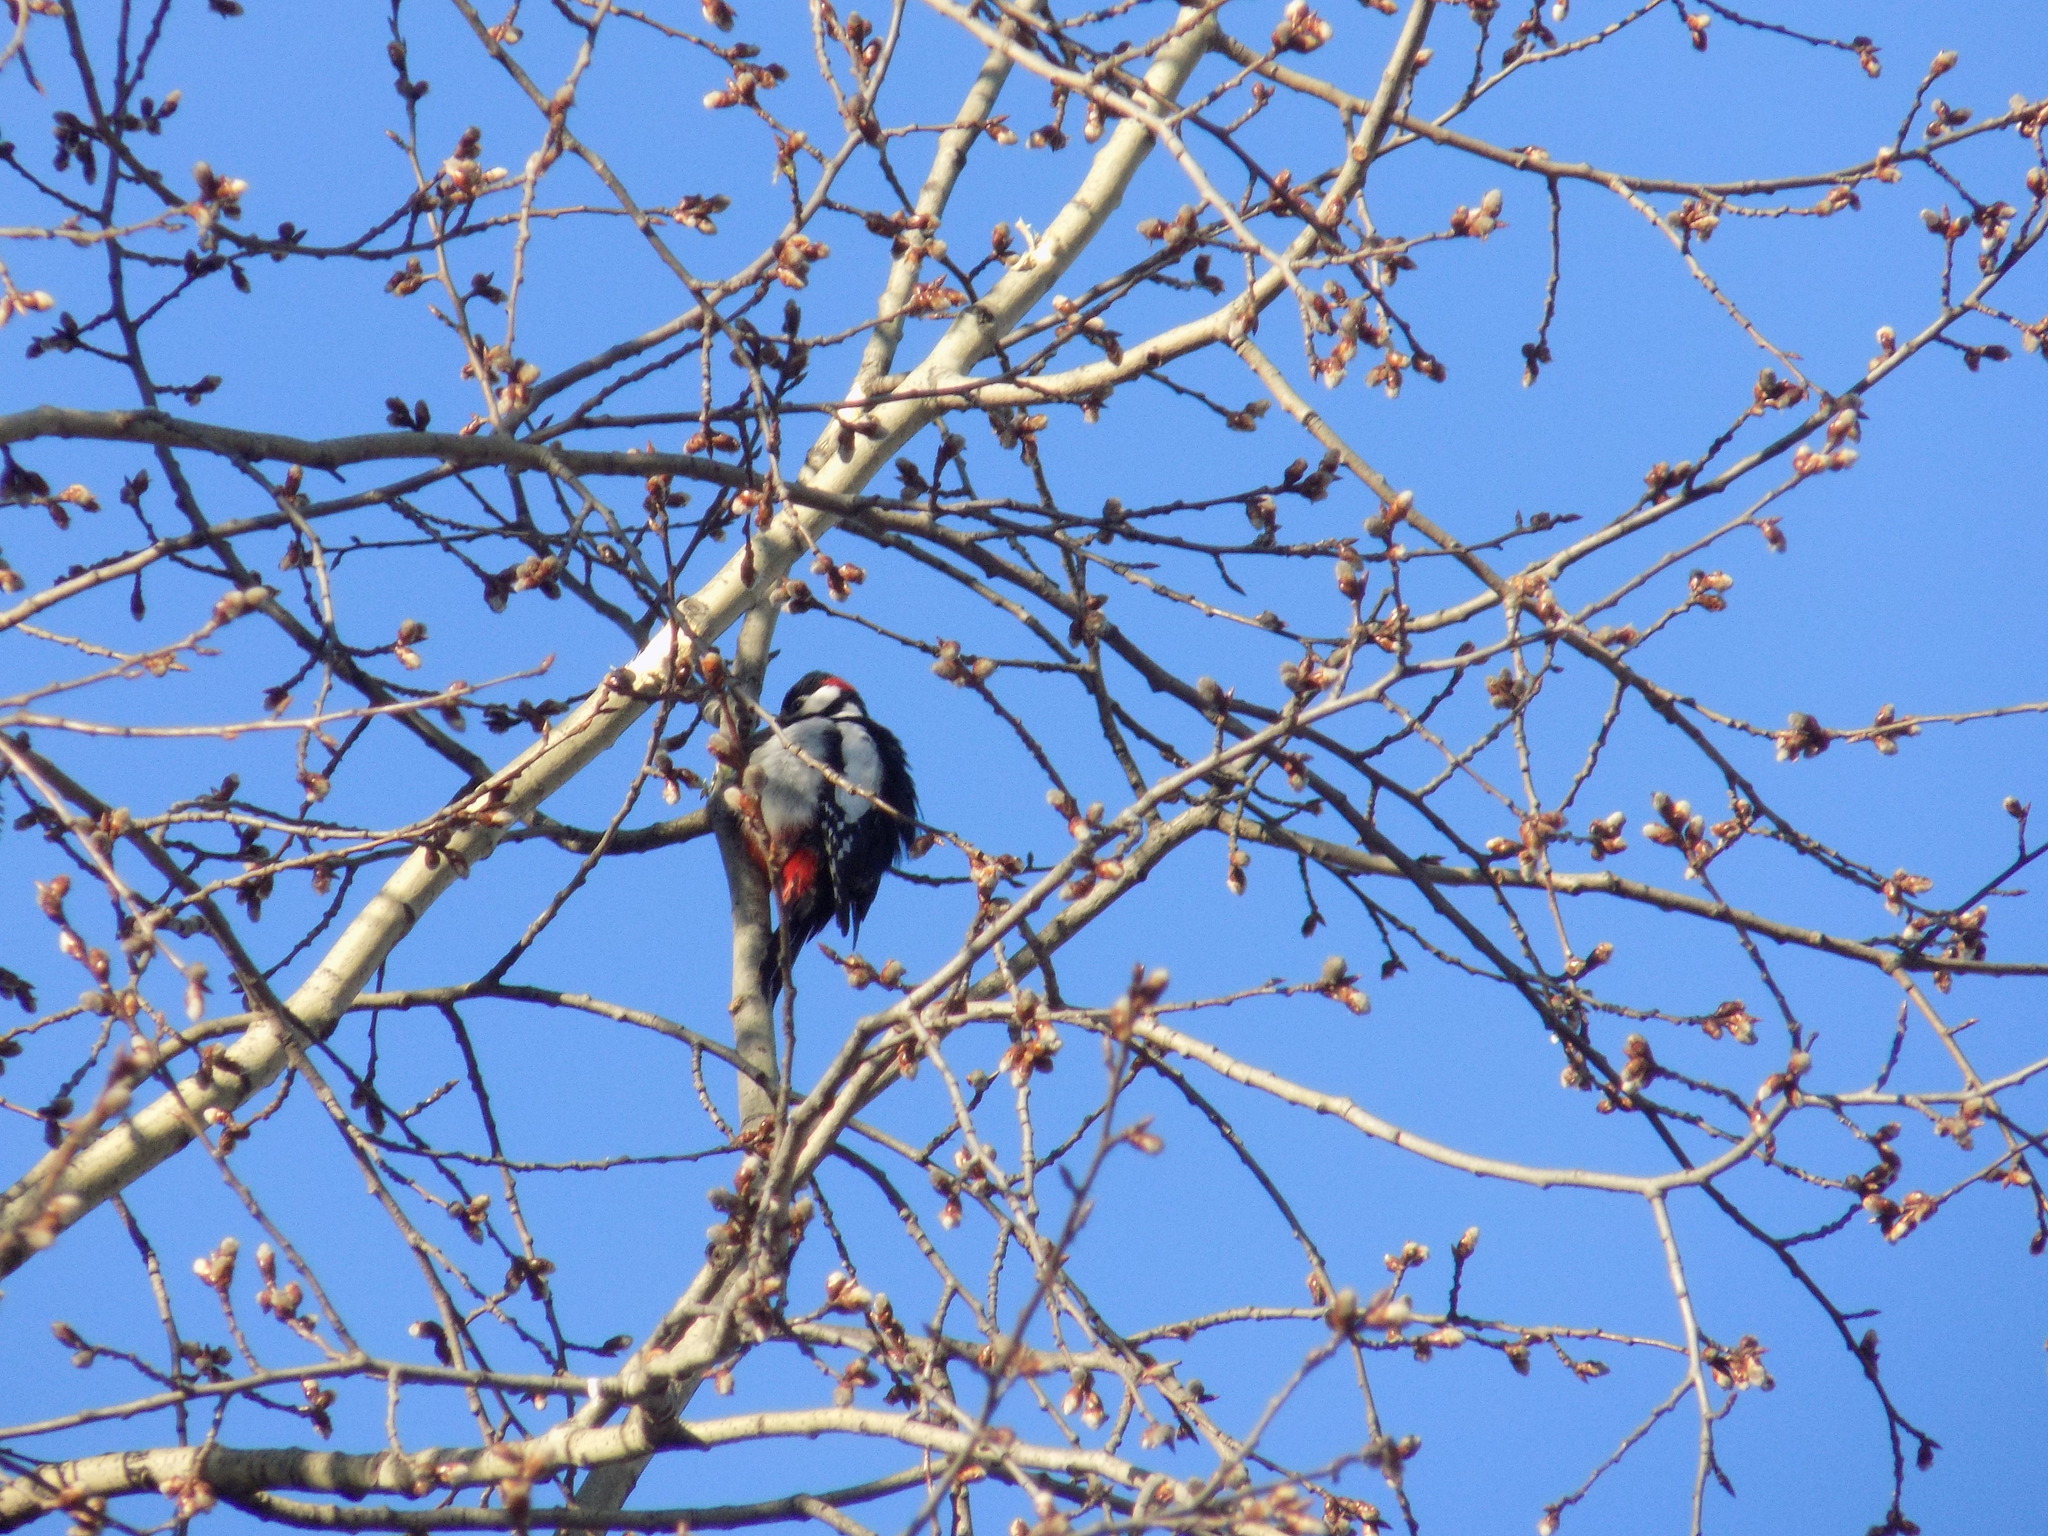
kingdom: Animalia
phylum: Chordata
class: Aves
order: Piciformes
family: Picidae
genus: Dendrocopos
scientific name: Dendrocopos major
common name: Great spotted woodpecker
